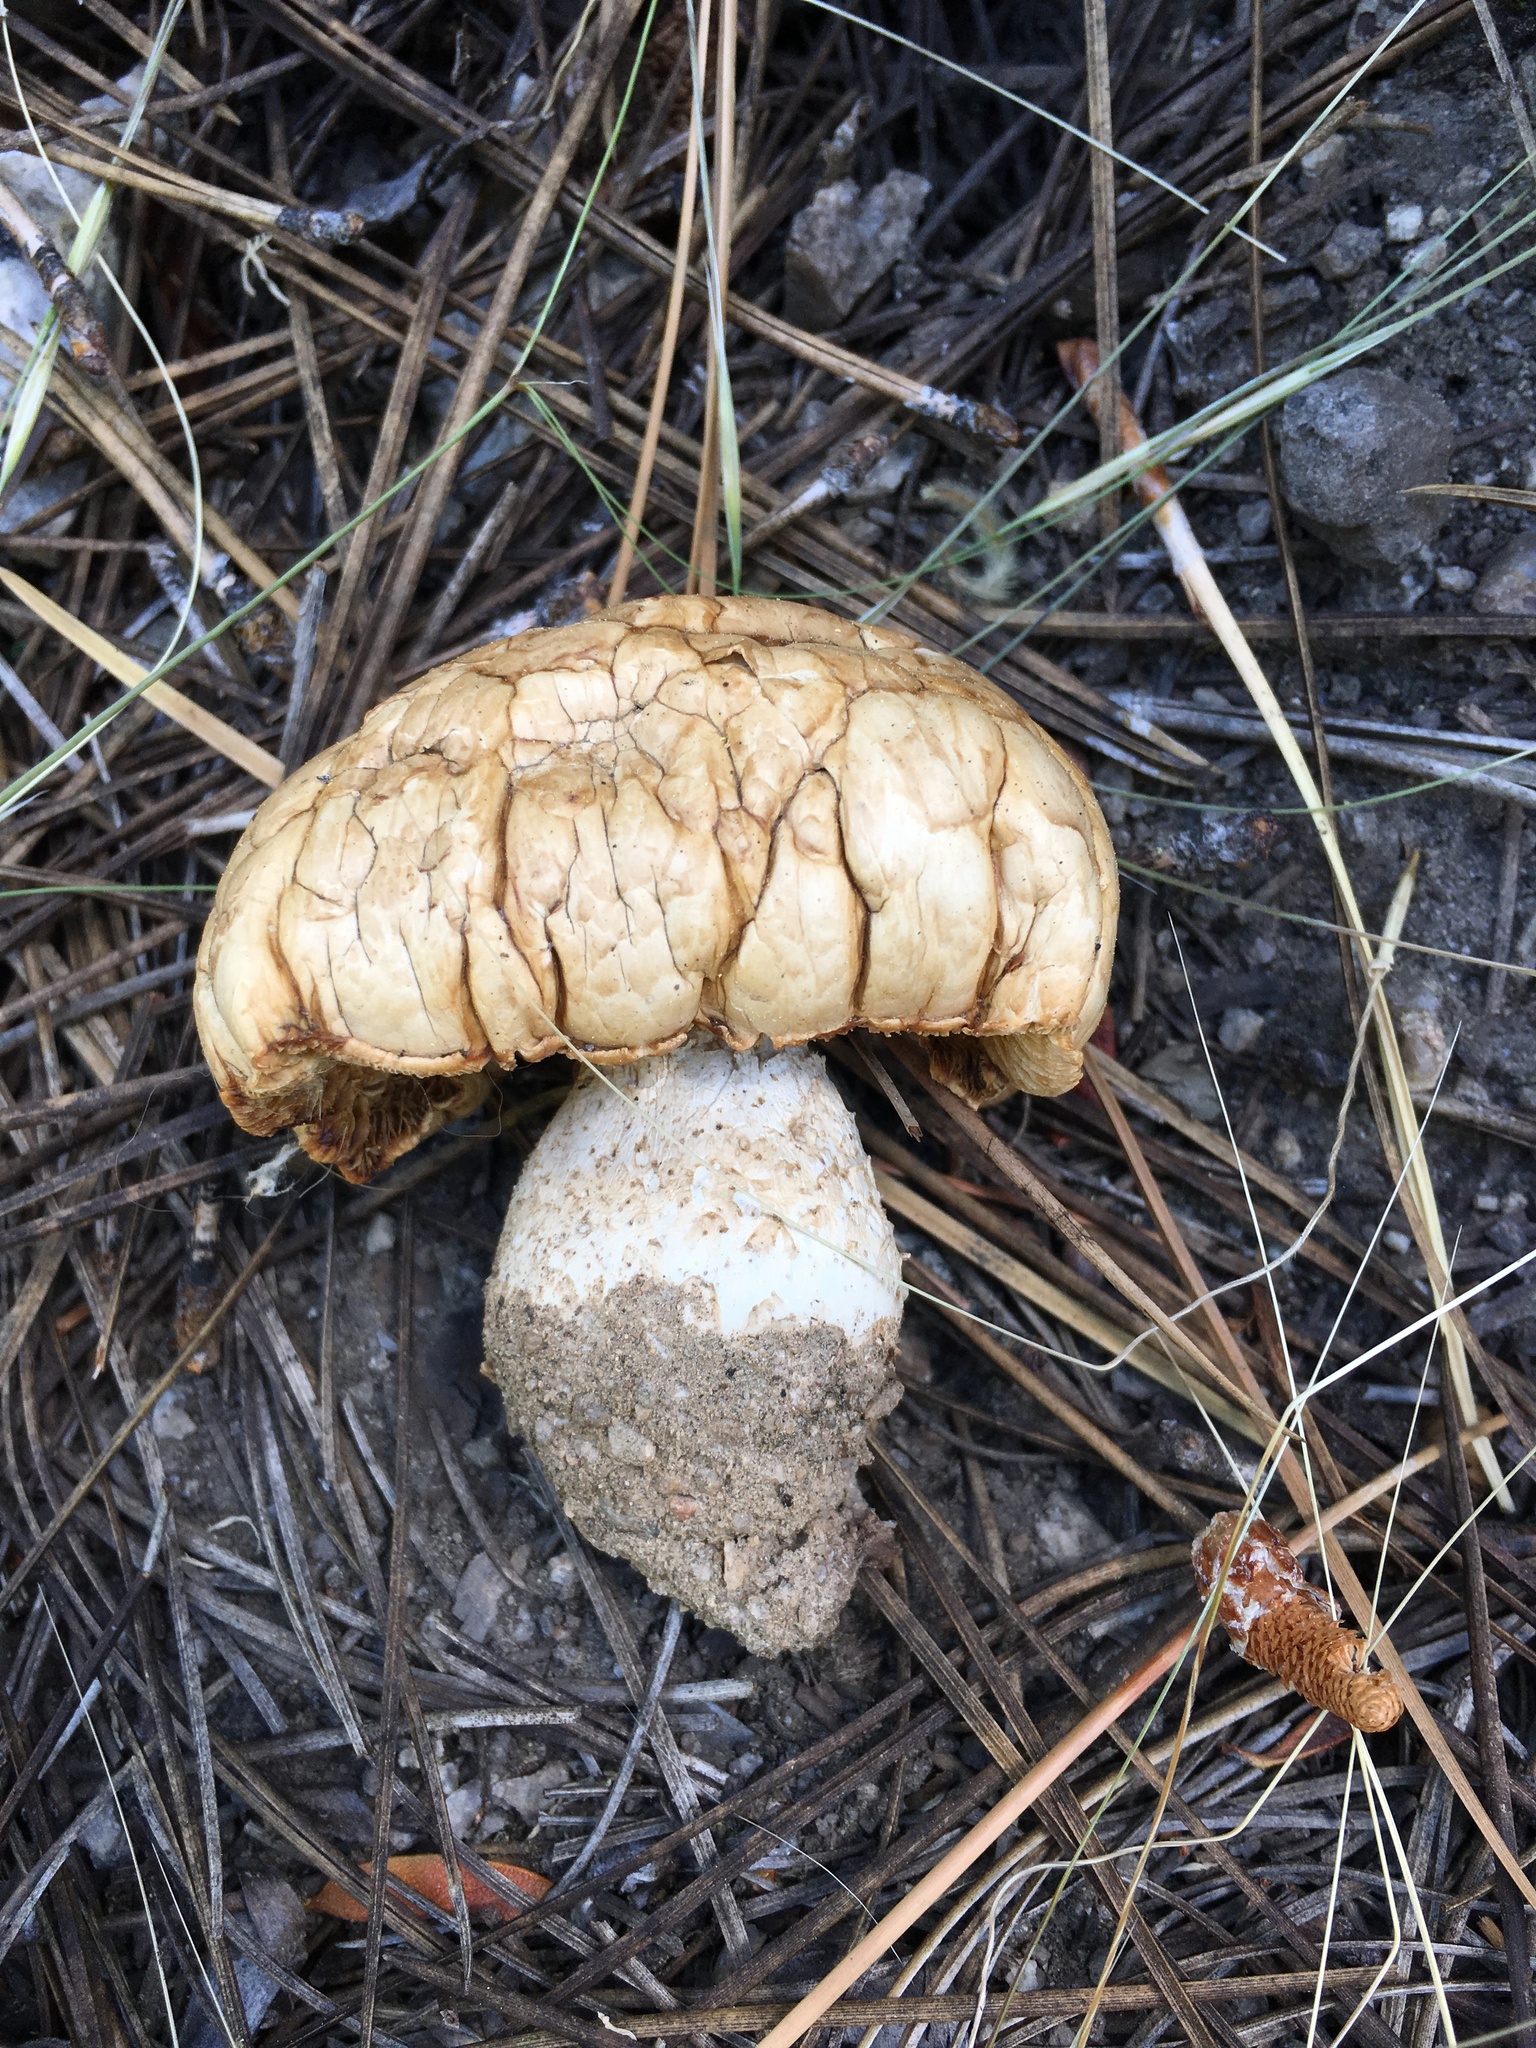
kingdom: Fungi
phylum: Basidiomycota
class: Agaricomycetes
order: Gloeophyllales
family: Gloeophyllaceae
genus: Neolentinus
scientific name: Neolentinus ponderosus
